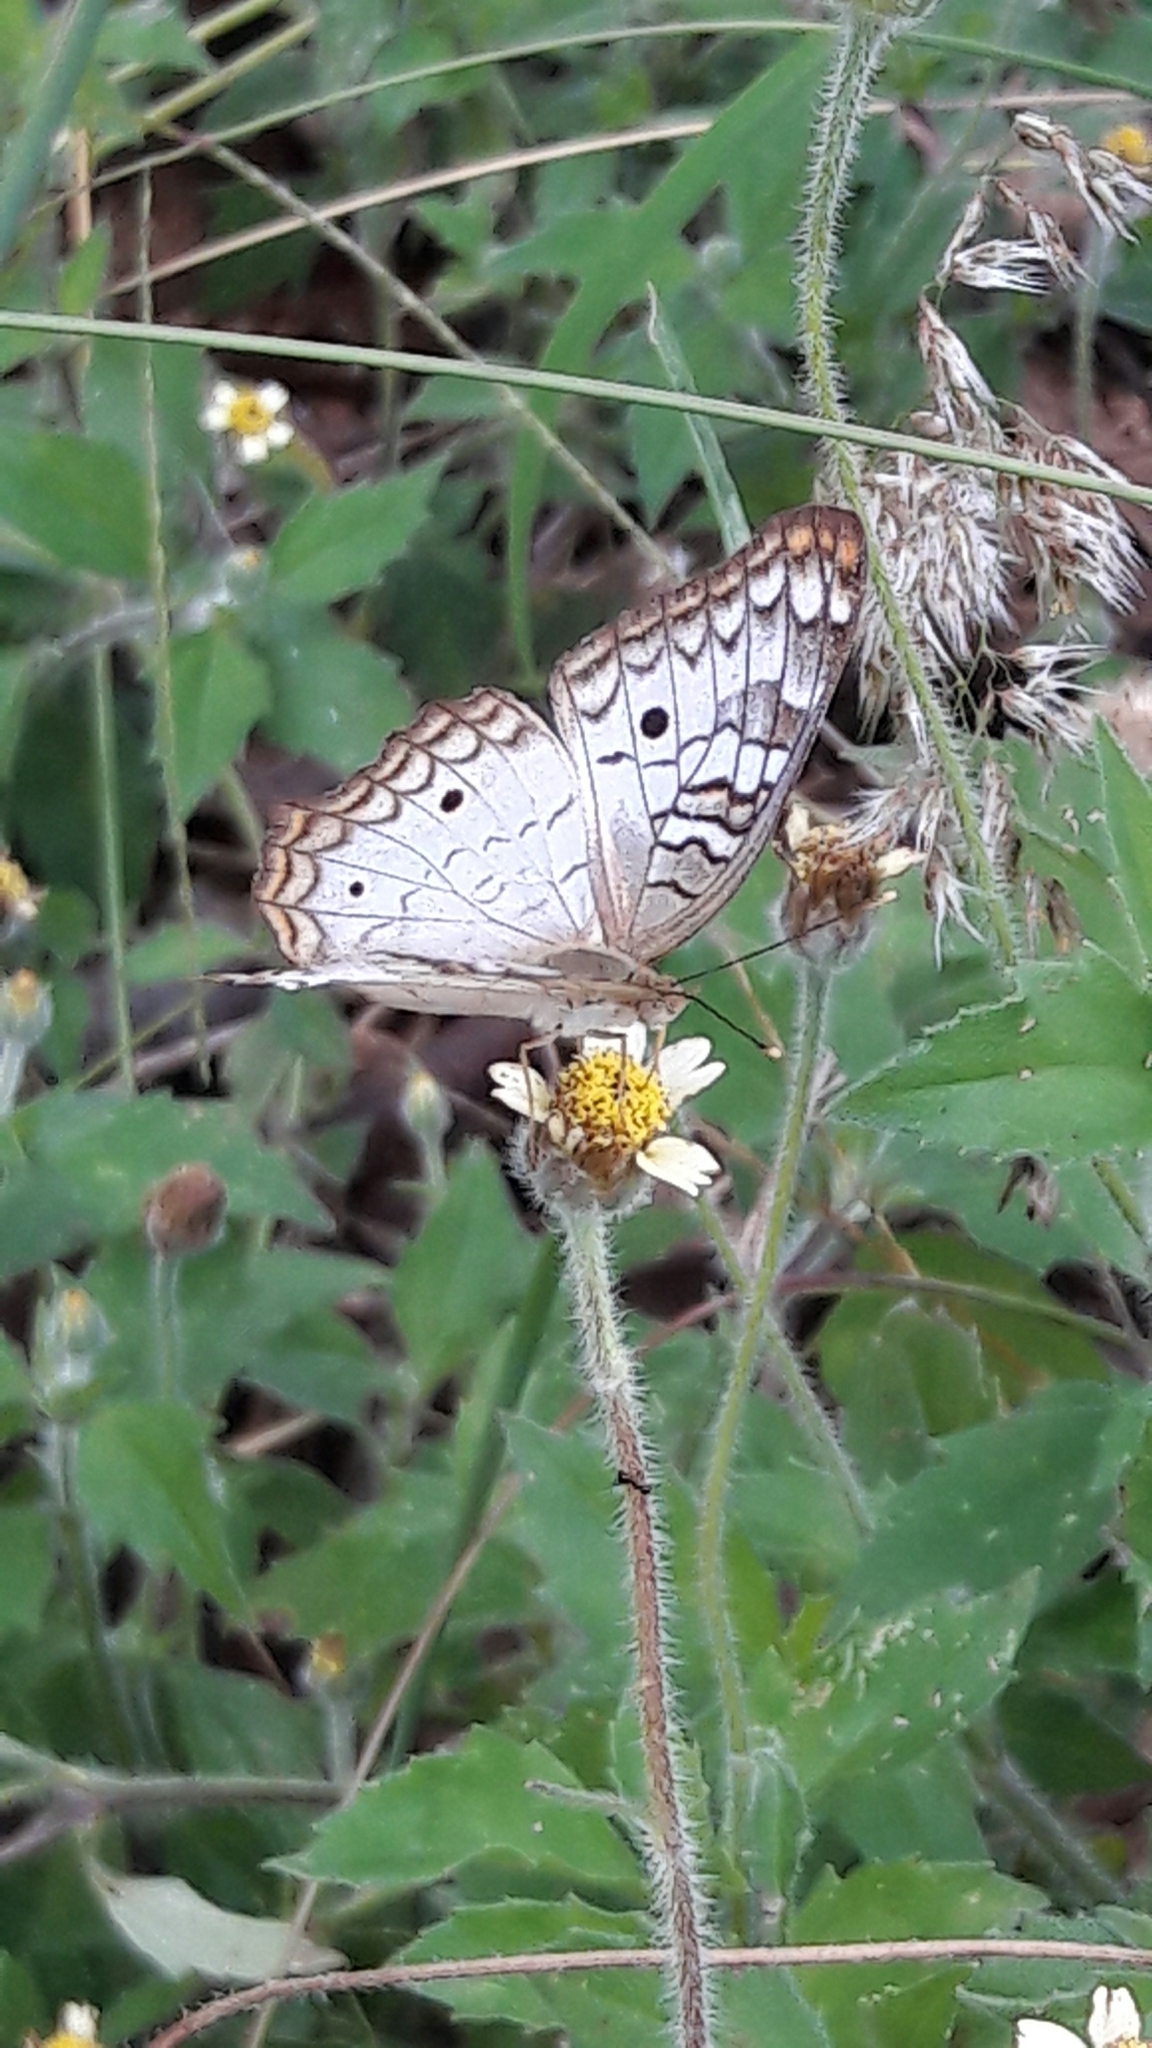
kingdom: Animalia
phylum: Arthropoda
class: Insecta
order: Lepidoptera
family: Nymphalidae
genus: Anartia
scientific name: Anartia jatrophae
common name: White peacock
